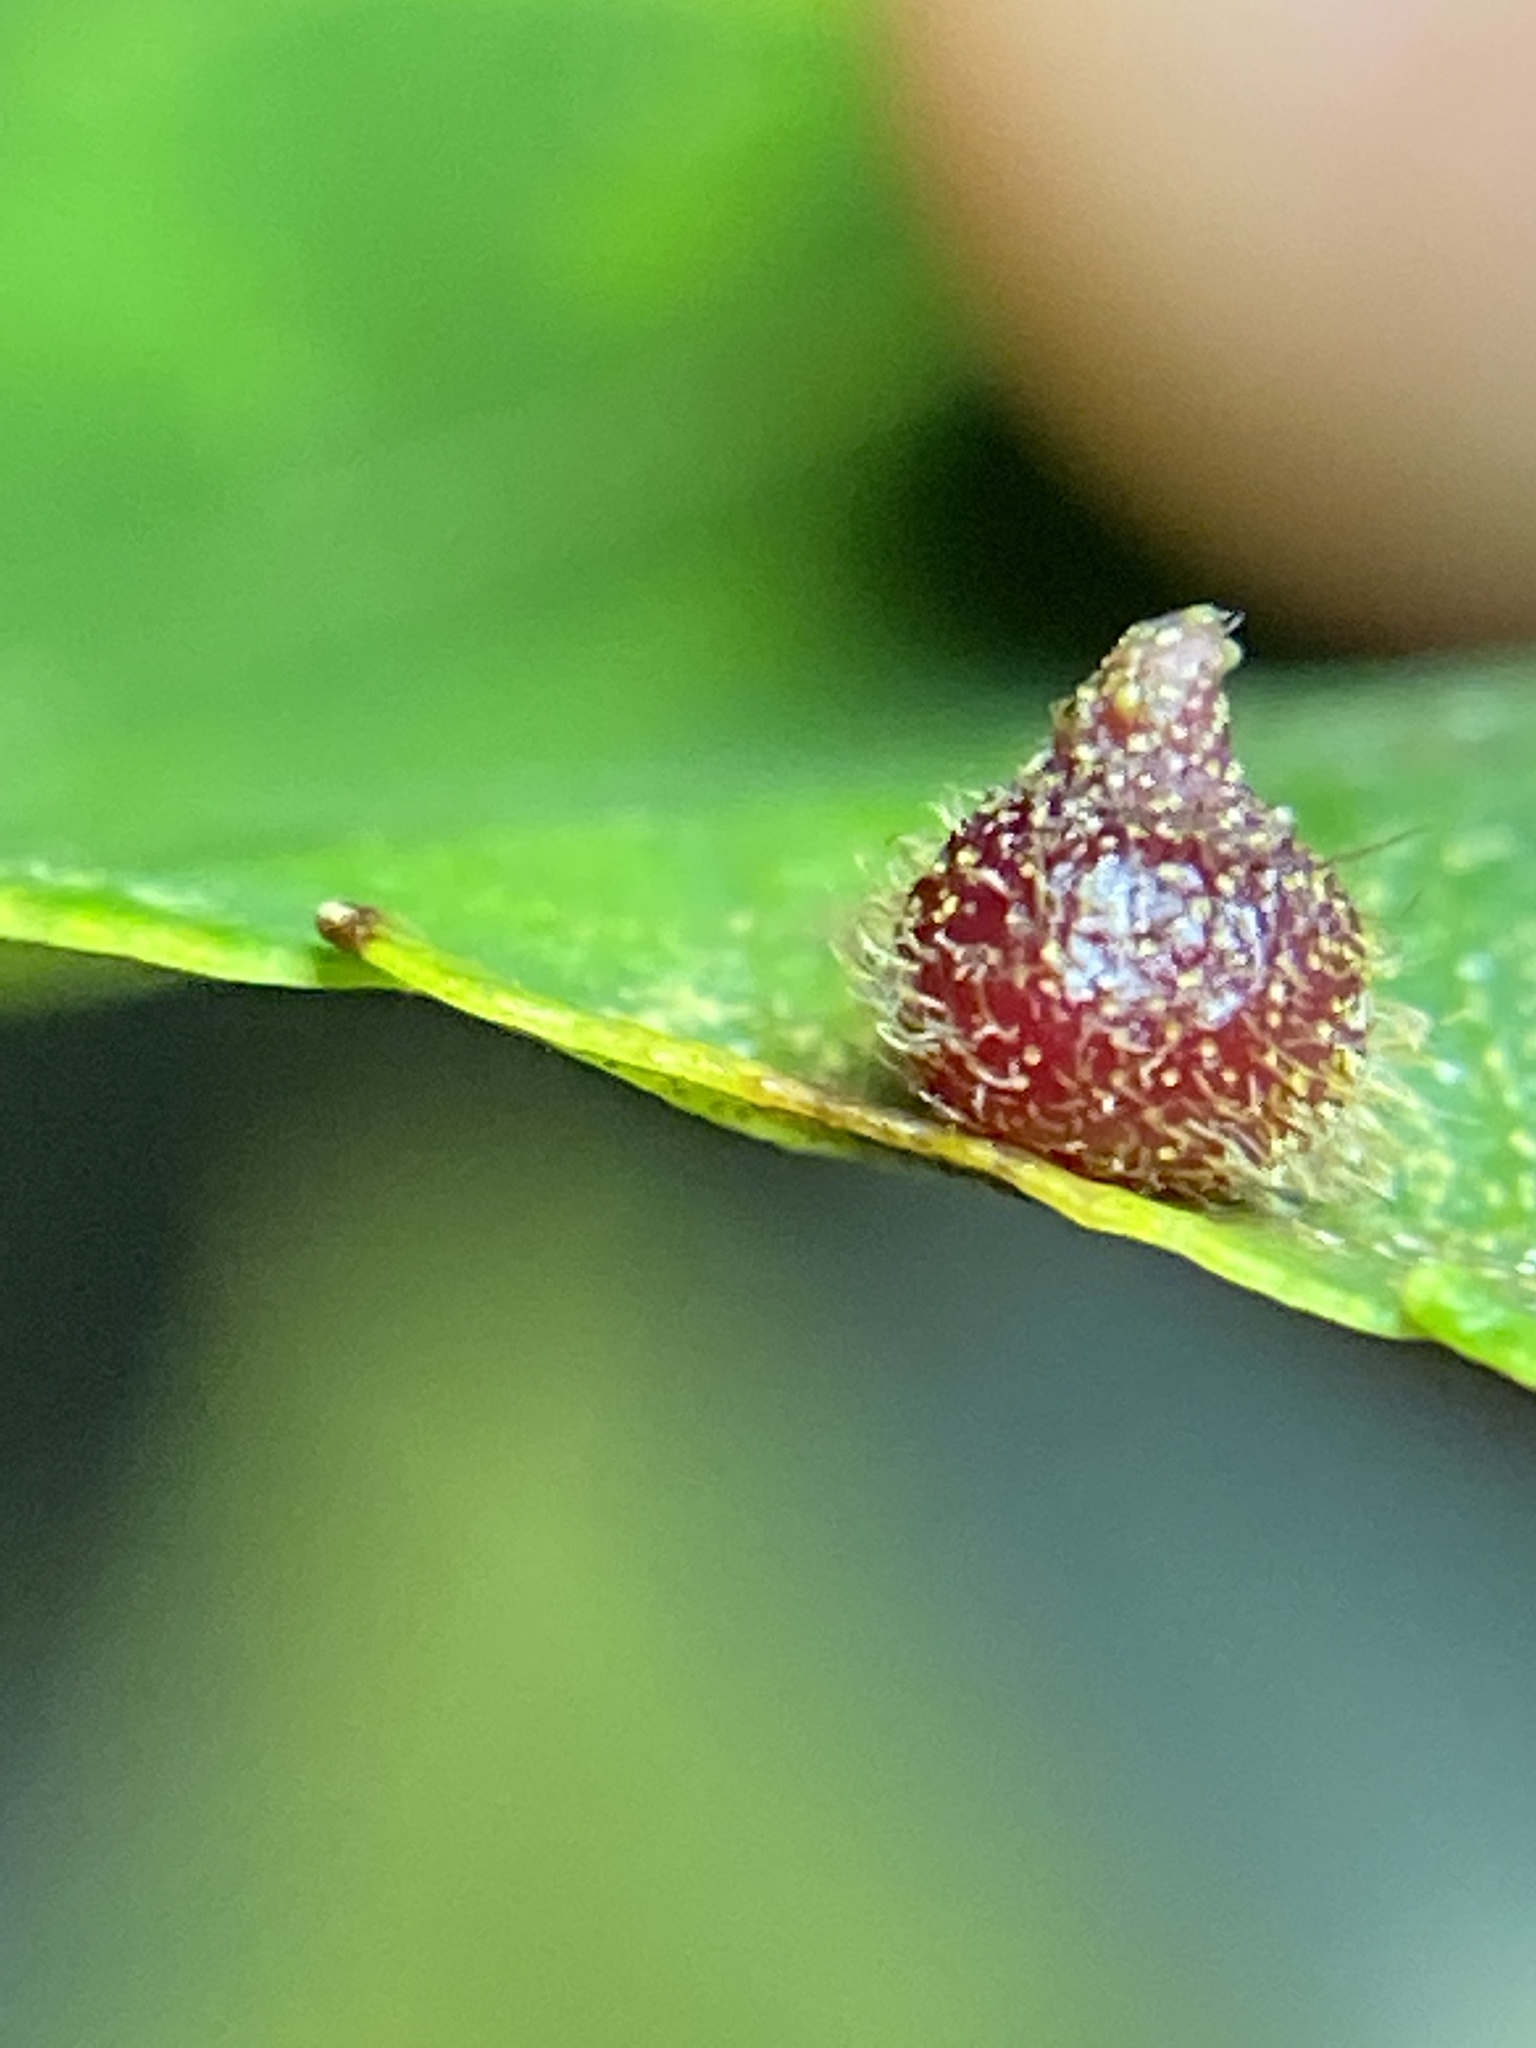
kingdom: Animalia
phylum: Arthropoda
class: Insecta
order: Diptera
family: Cecidomyiidae
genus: Caryomyia
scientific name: Caryomyia turbanella
